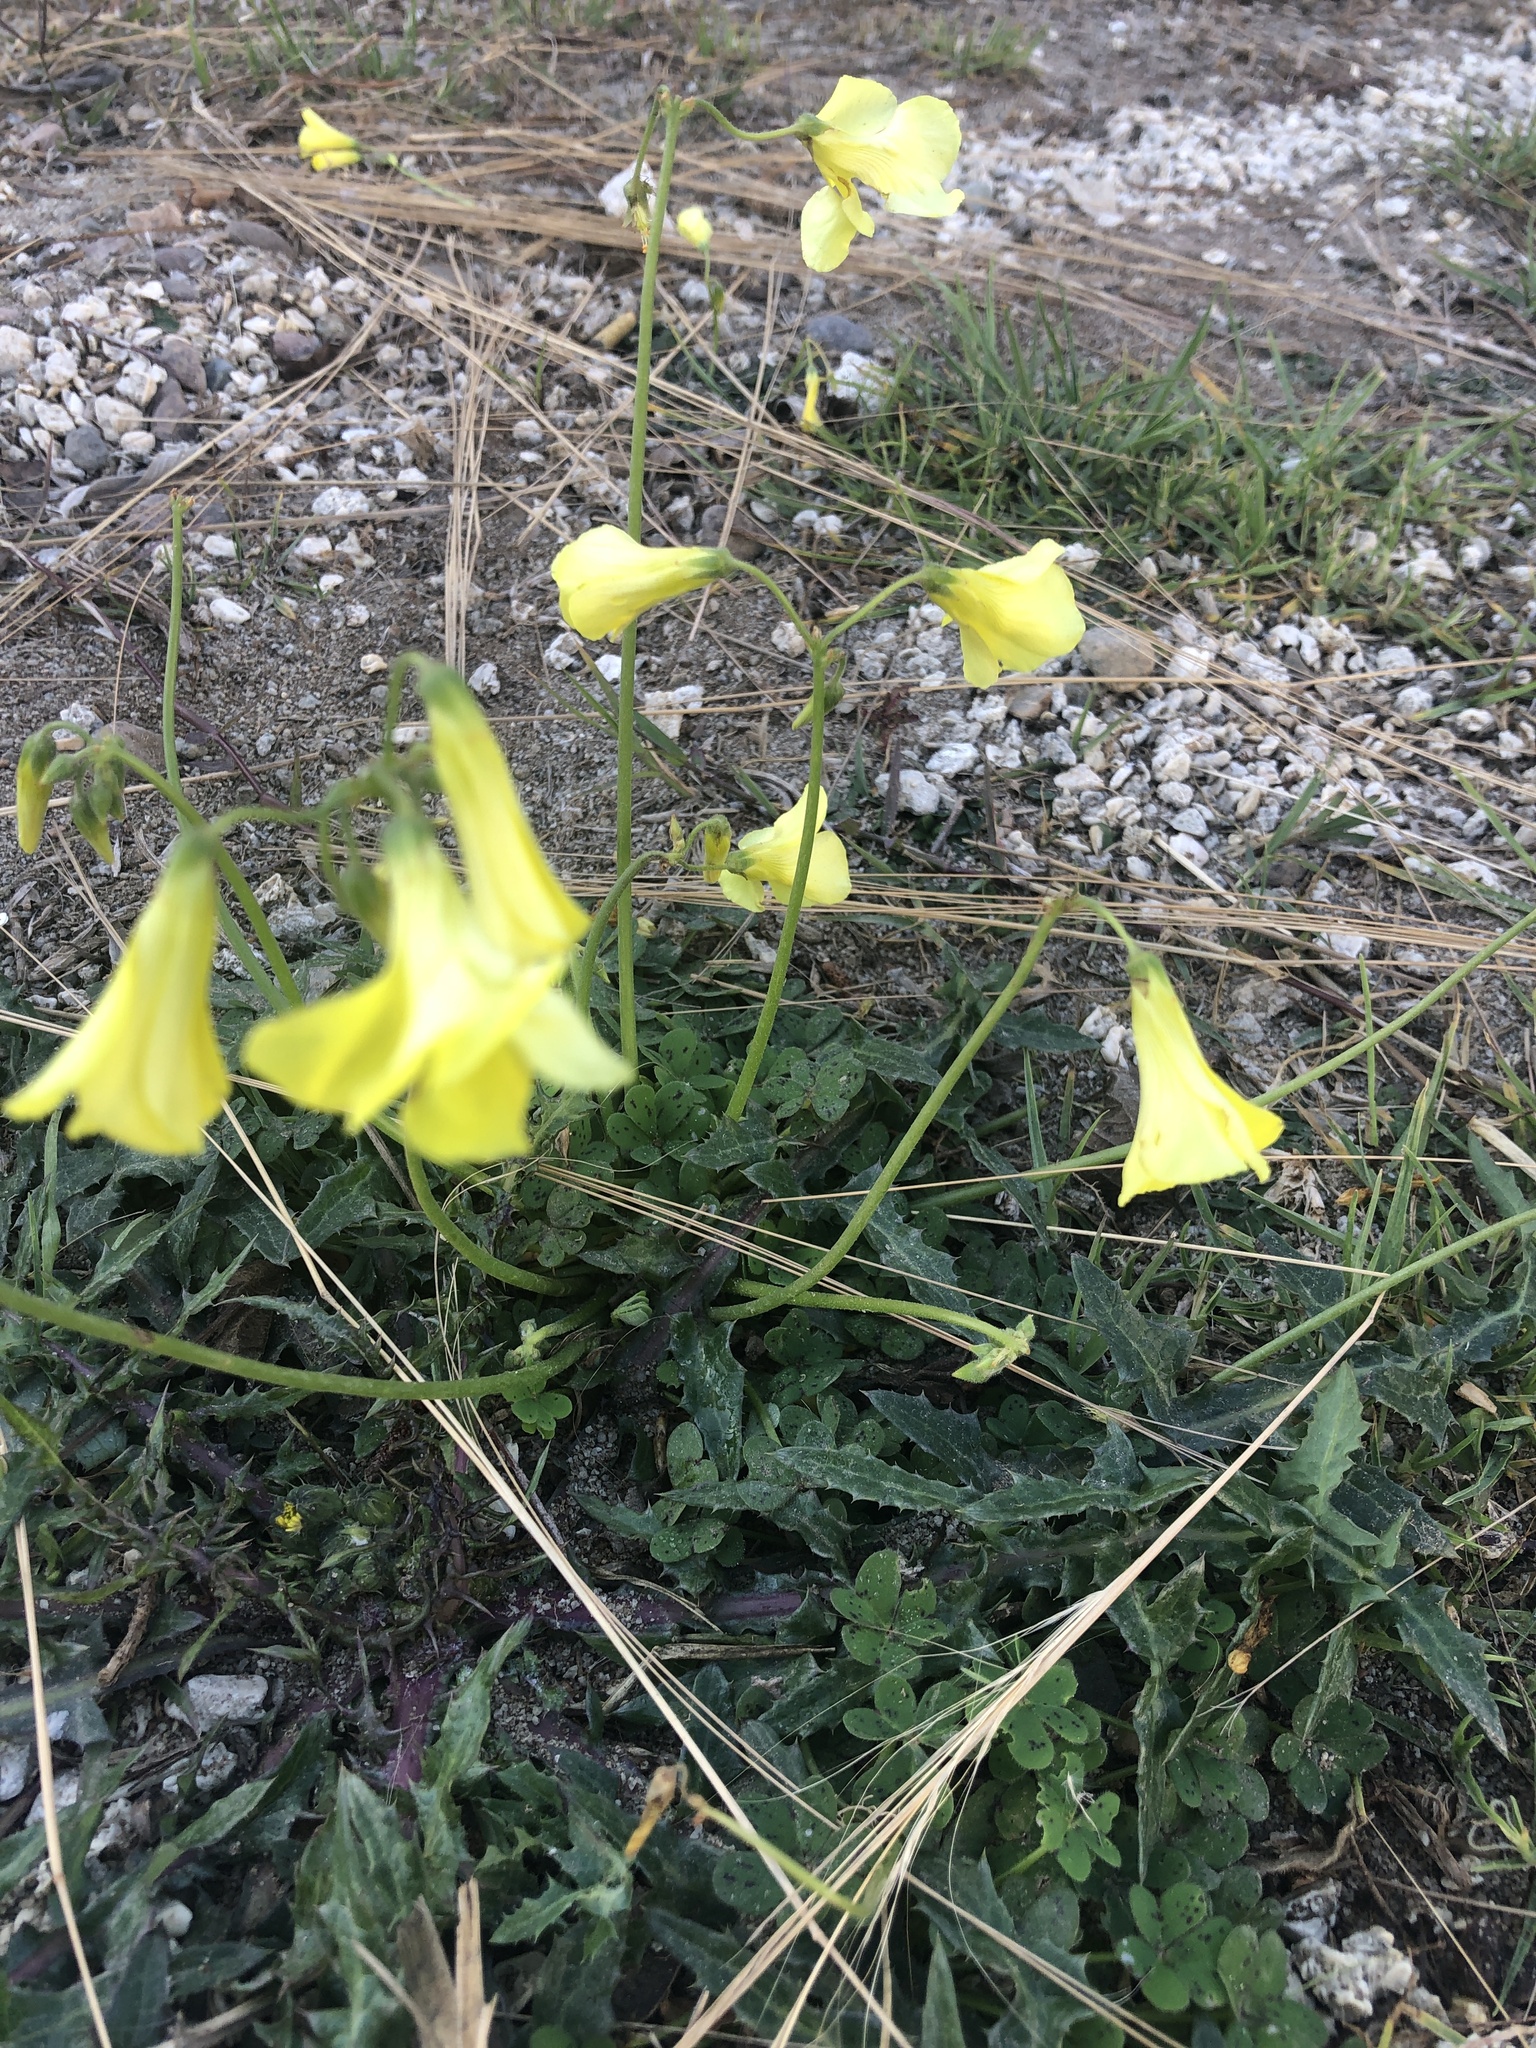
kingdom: Plantae
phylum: Tracheophyta
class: Magnoliopsida
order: Oxalidales
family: Oxalidaceae
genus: Oxalis
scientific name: Oxalis pes-caprae
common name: Bermuda-buttercup
